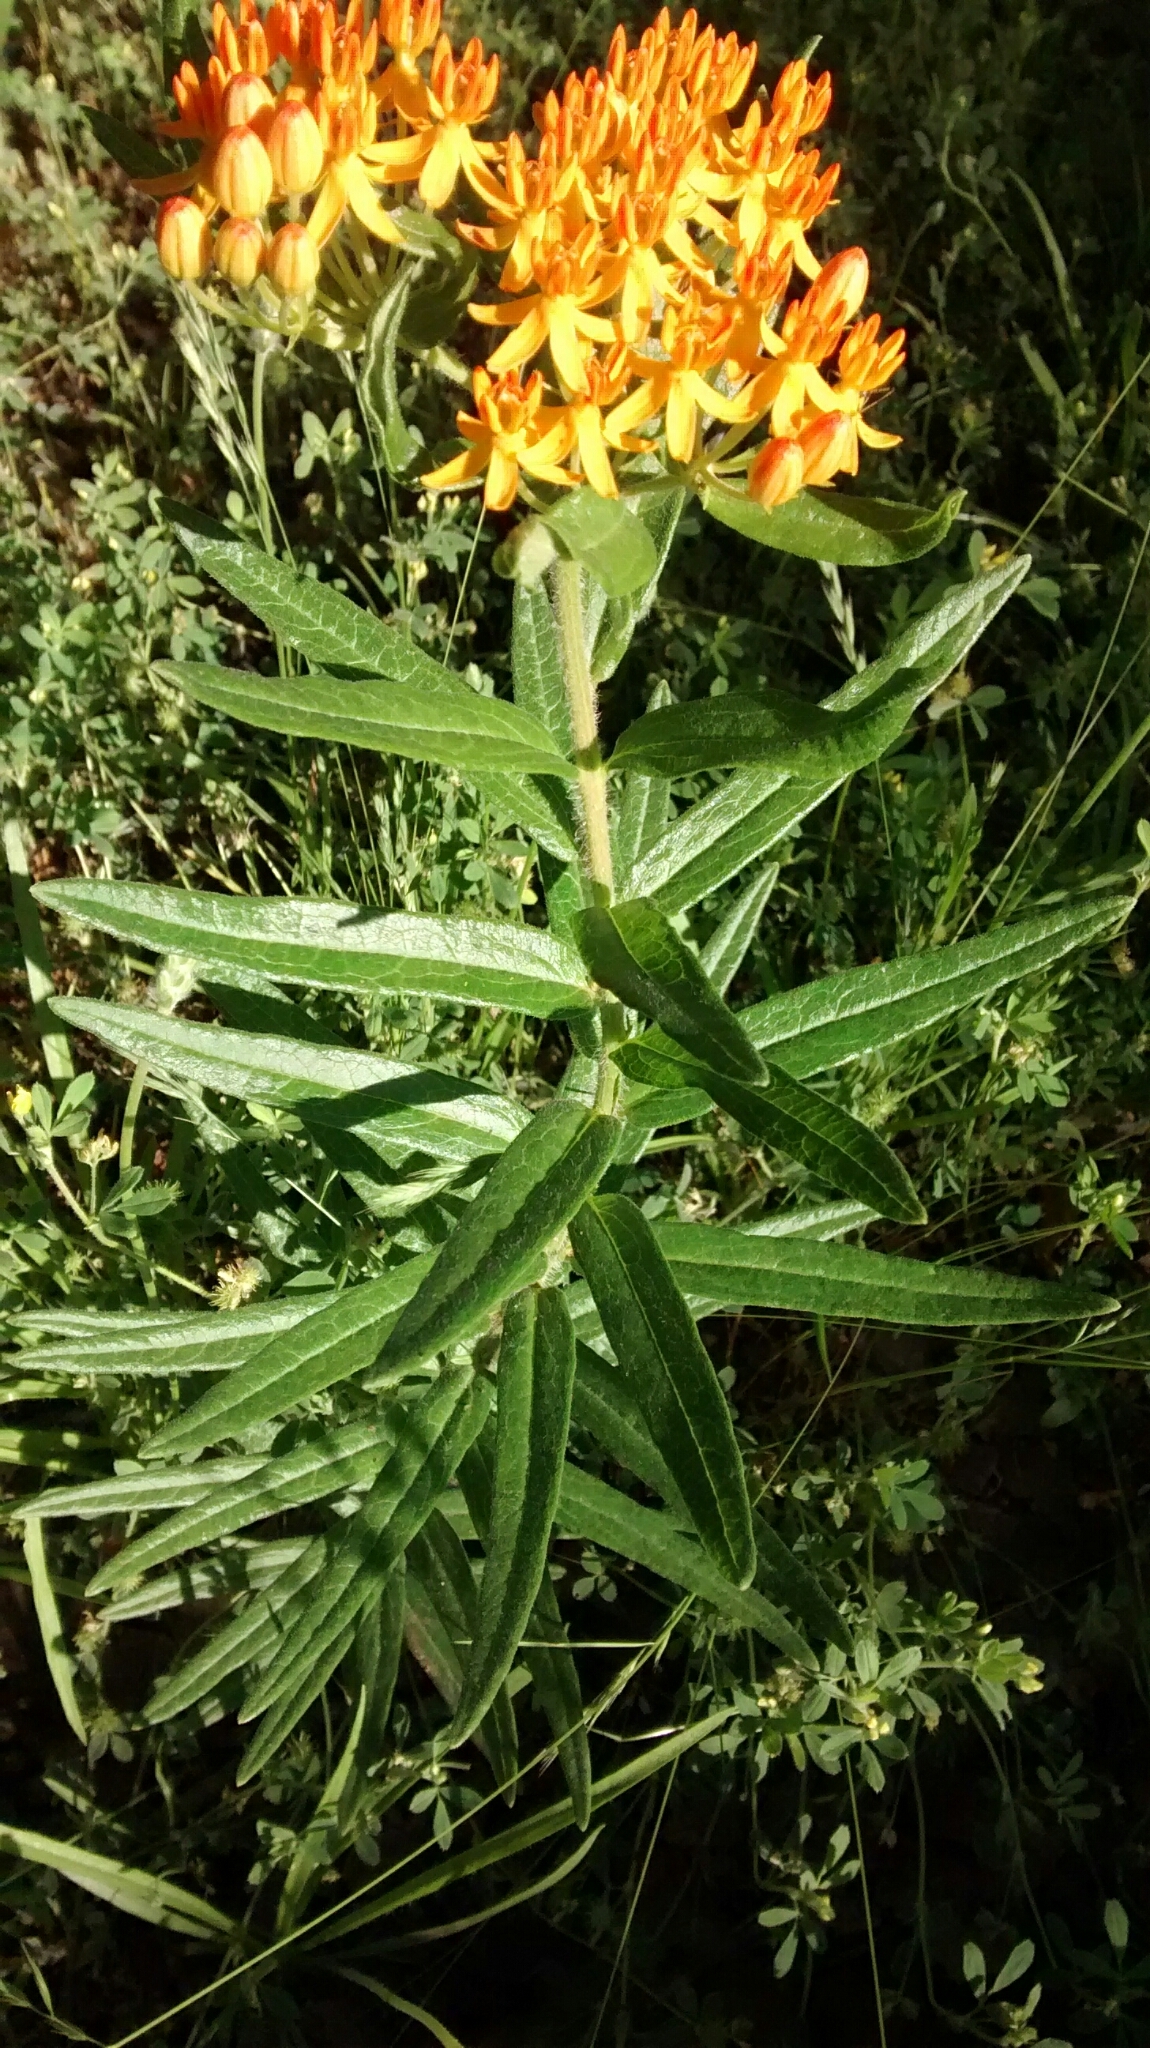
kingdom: Plantae
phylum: Tracheophyta
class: Magnoliopsida
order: Gentianales
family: Apocynaceae
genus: Asclepias
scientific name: Asclepias tuberosa
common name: Butterfly milkweed
